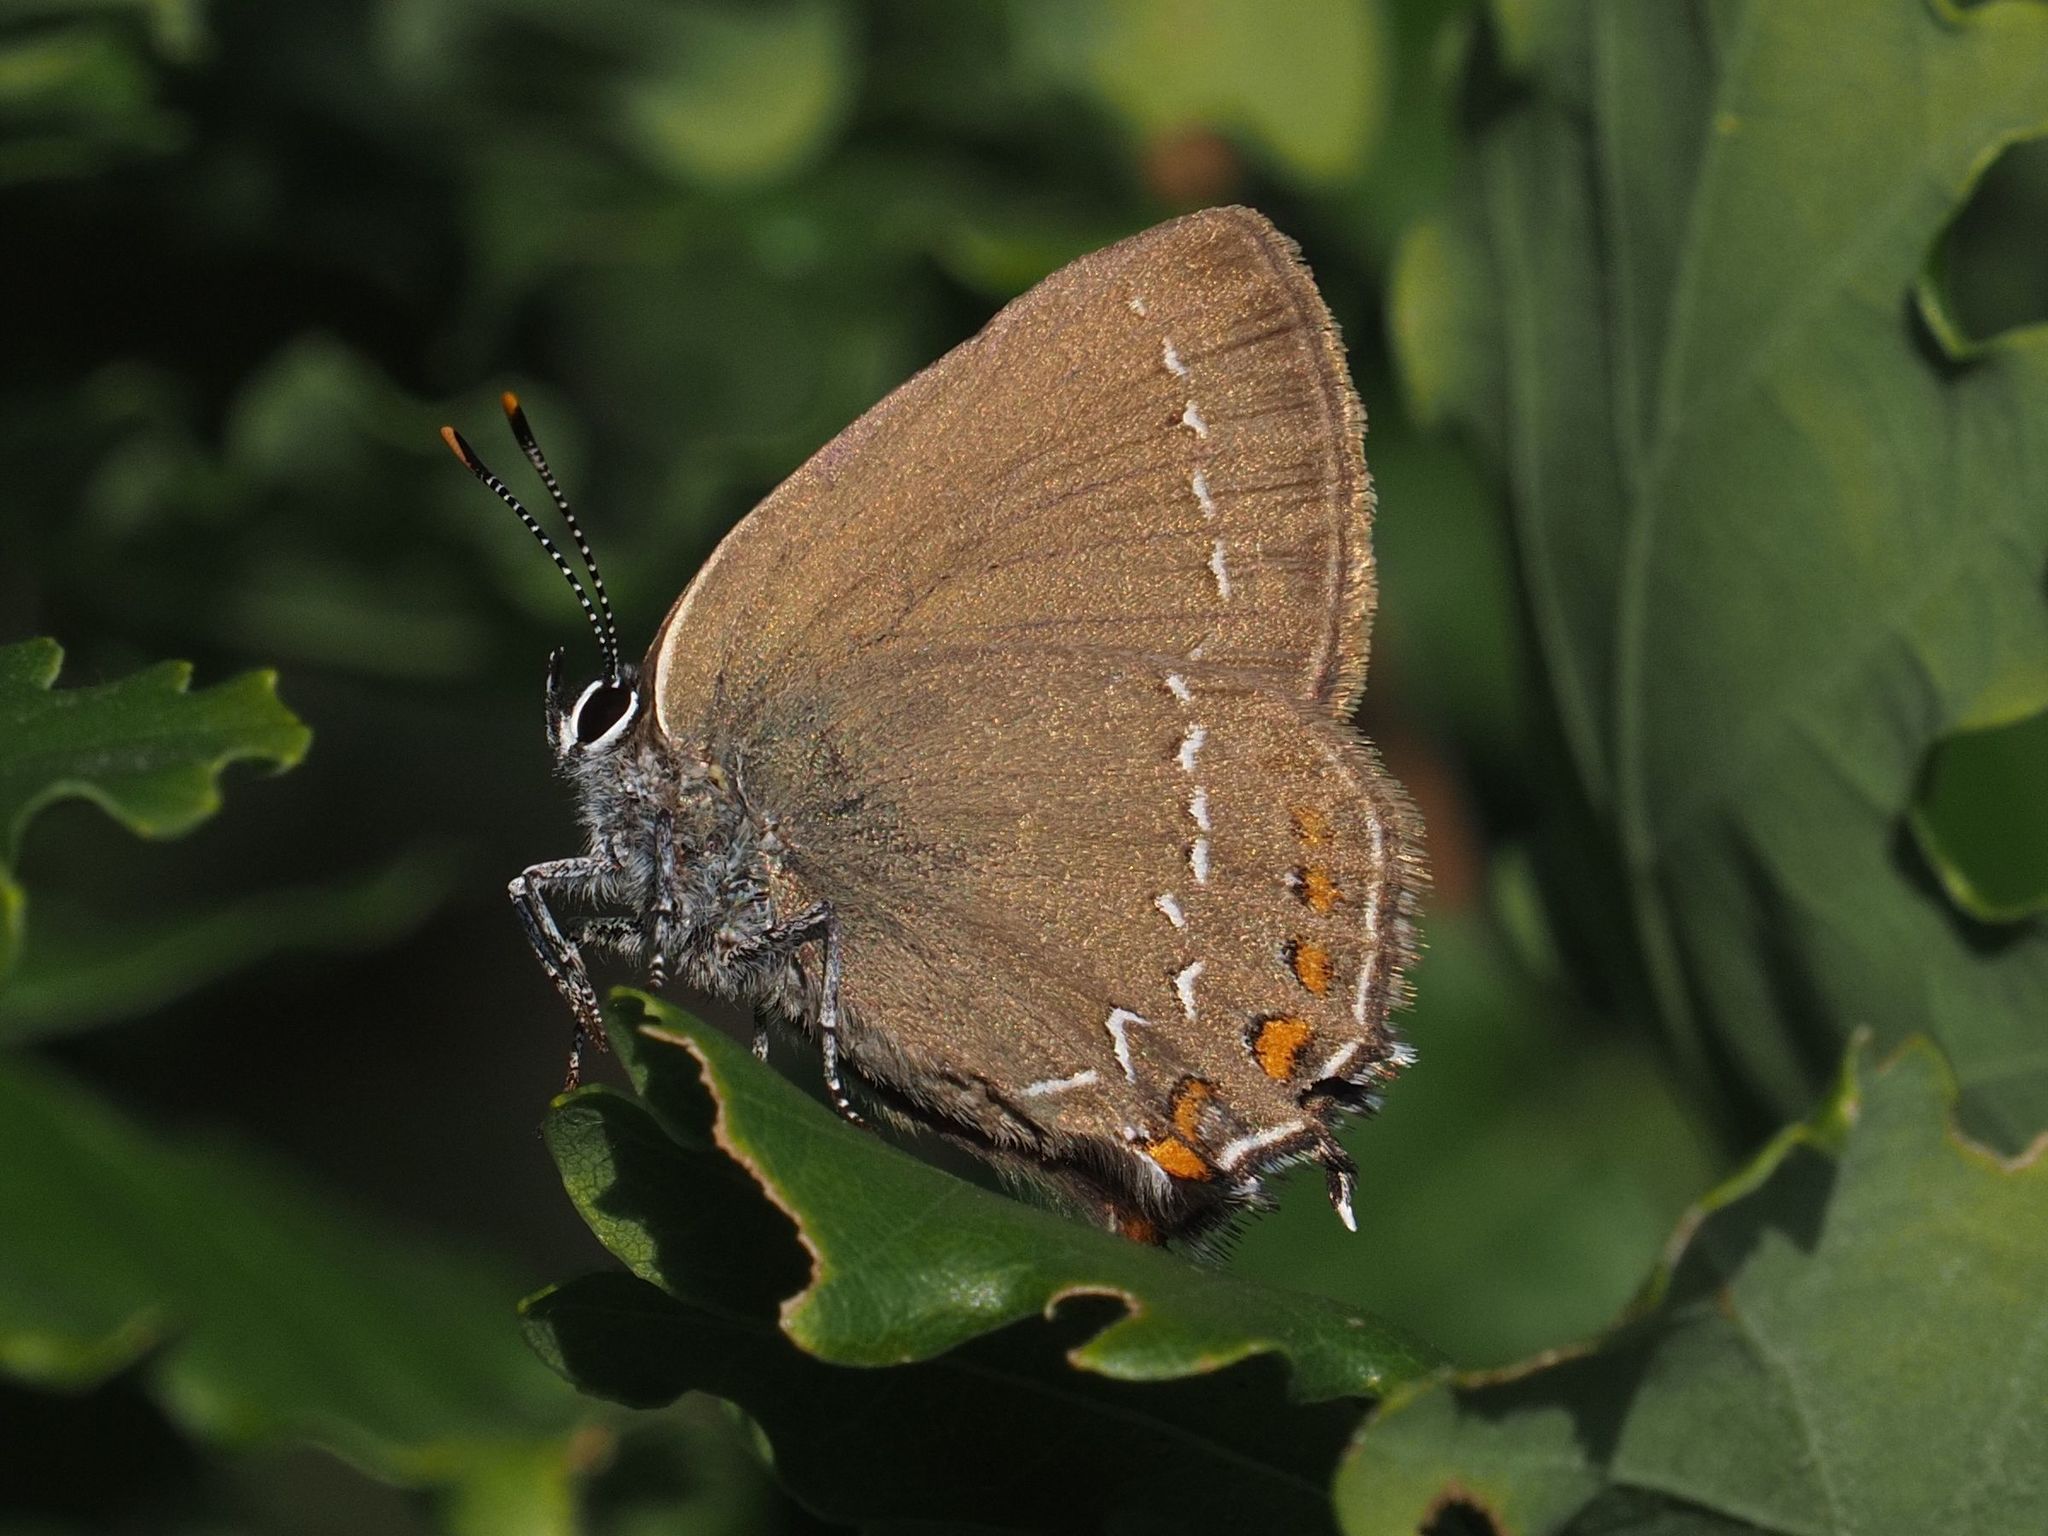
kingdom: Animalia
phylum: Arthropoda
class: Insecta
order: Lepidoptera
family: Lycaenidae
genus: Nordmannia
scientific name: Nordmannia ilicis
